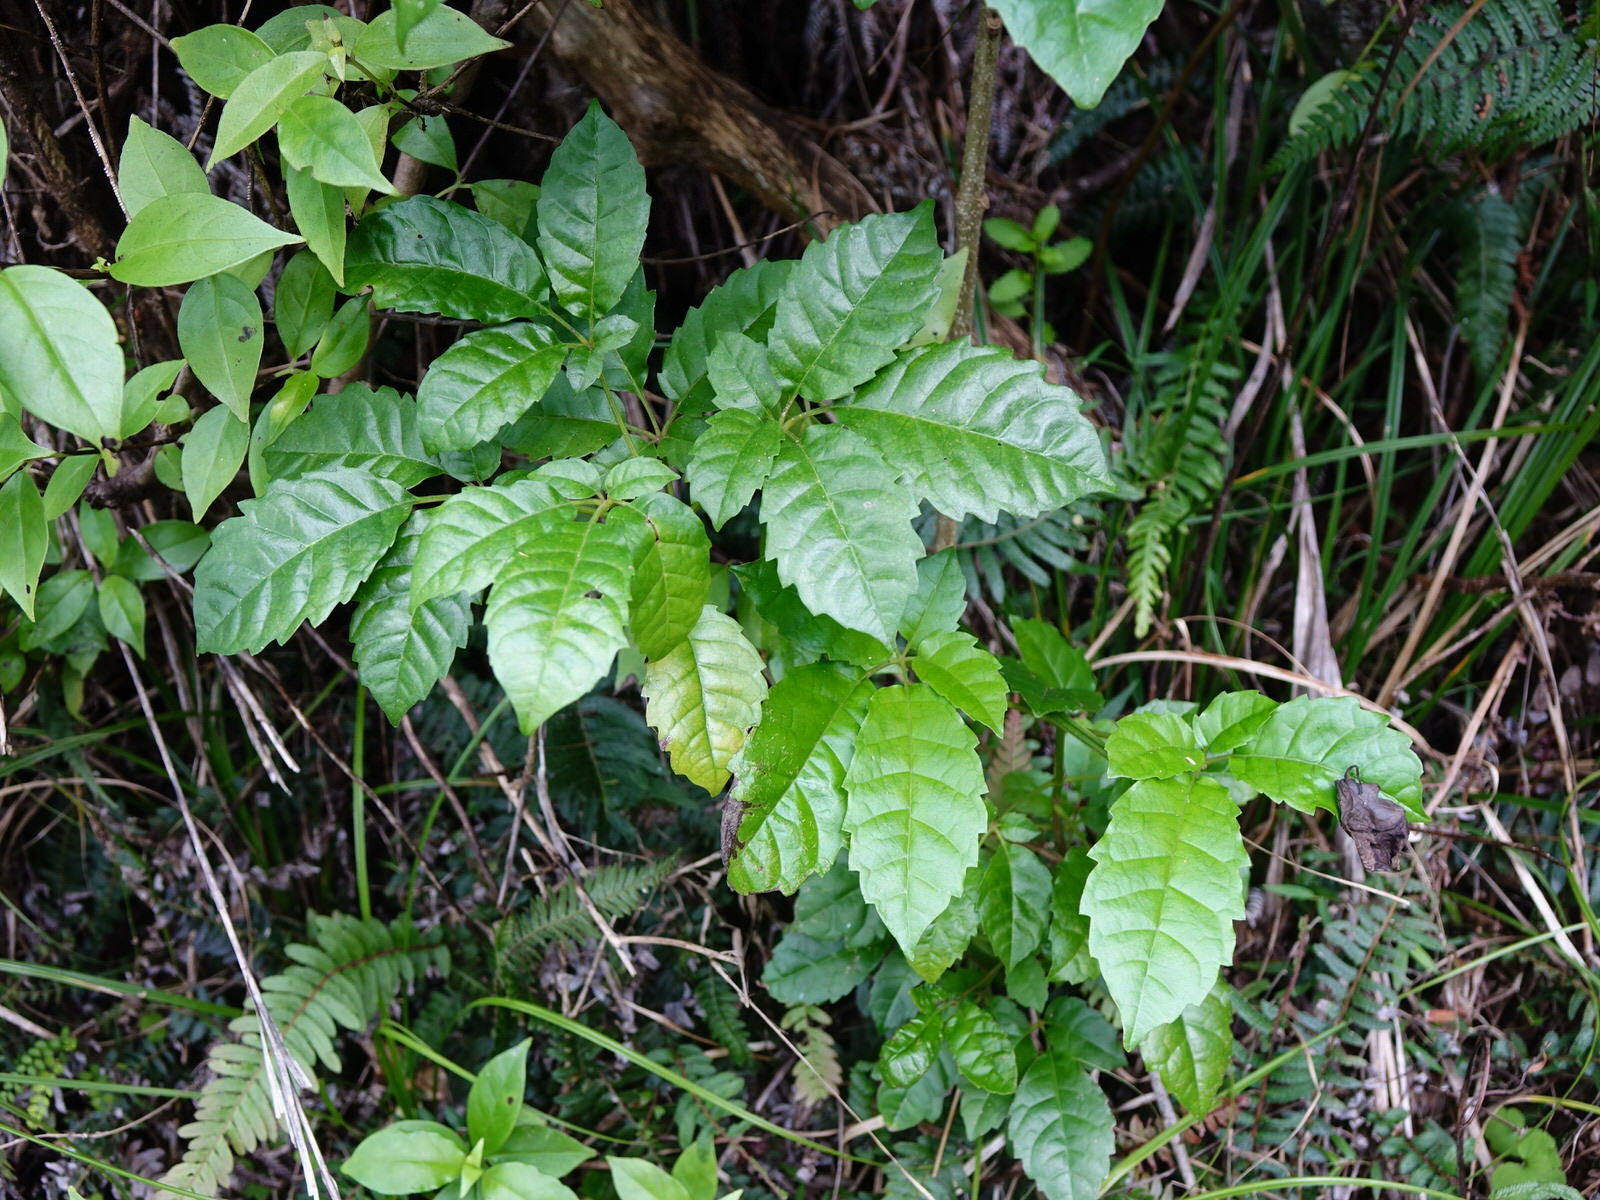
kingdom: Plantae
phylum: Tracheophyta
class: Magnoliopsida
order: Lamiales
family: Lamiaceae
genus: Vitex
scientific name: Vitex lucens
